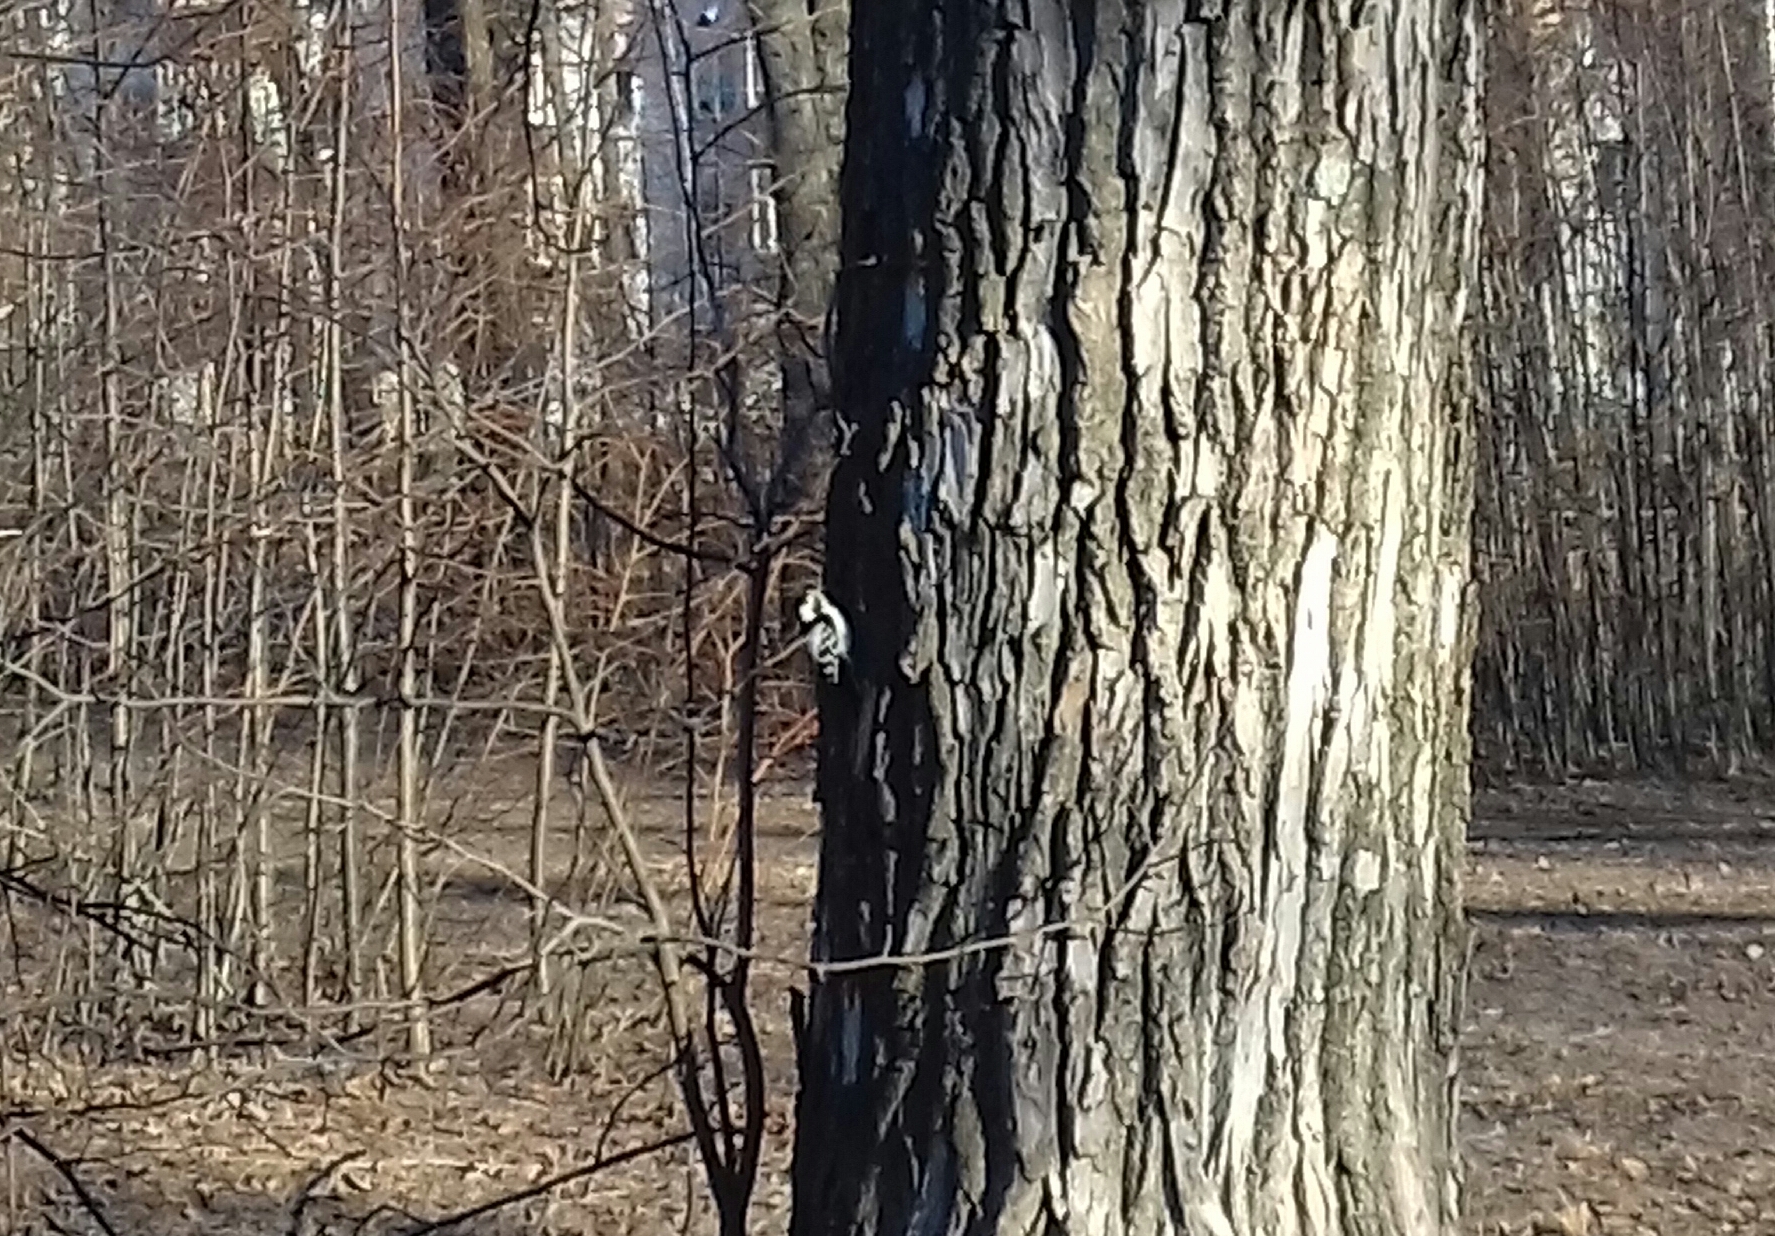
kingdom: Animalia
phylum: Chordata
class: Aves
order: Piciformes
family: Picidae
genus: Dryobates
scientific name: Dryobates minor
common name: Lesser spotted woodpecker
